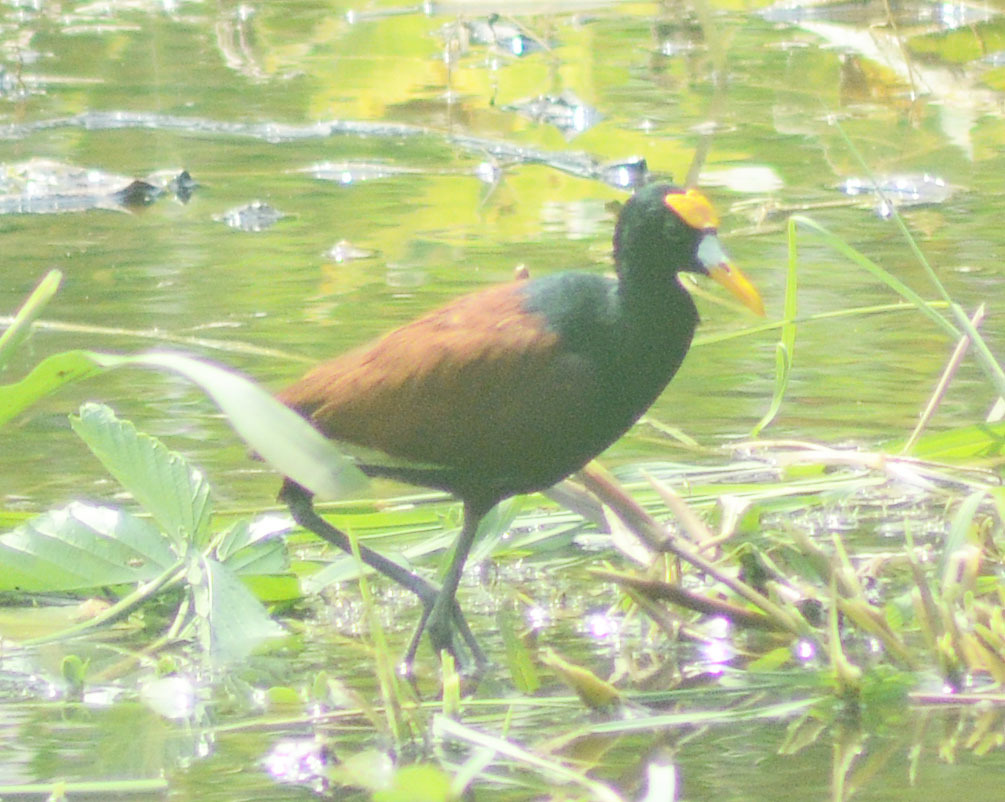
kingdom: Animalia
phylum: Chordata
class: Aves
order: Charadriiformes
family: Jacanidae
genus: Jacana
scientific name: Jacana spinosa
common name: Northern jacana
